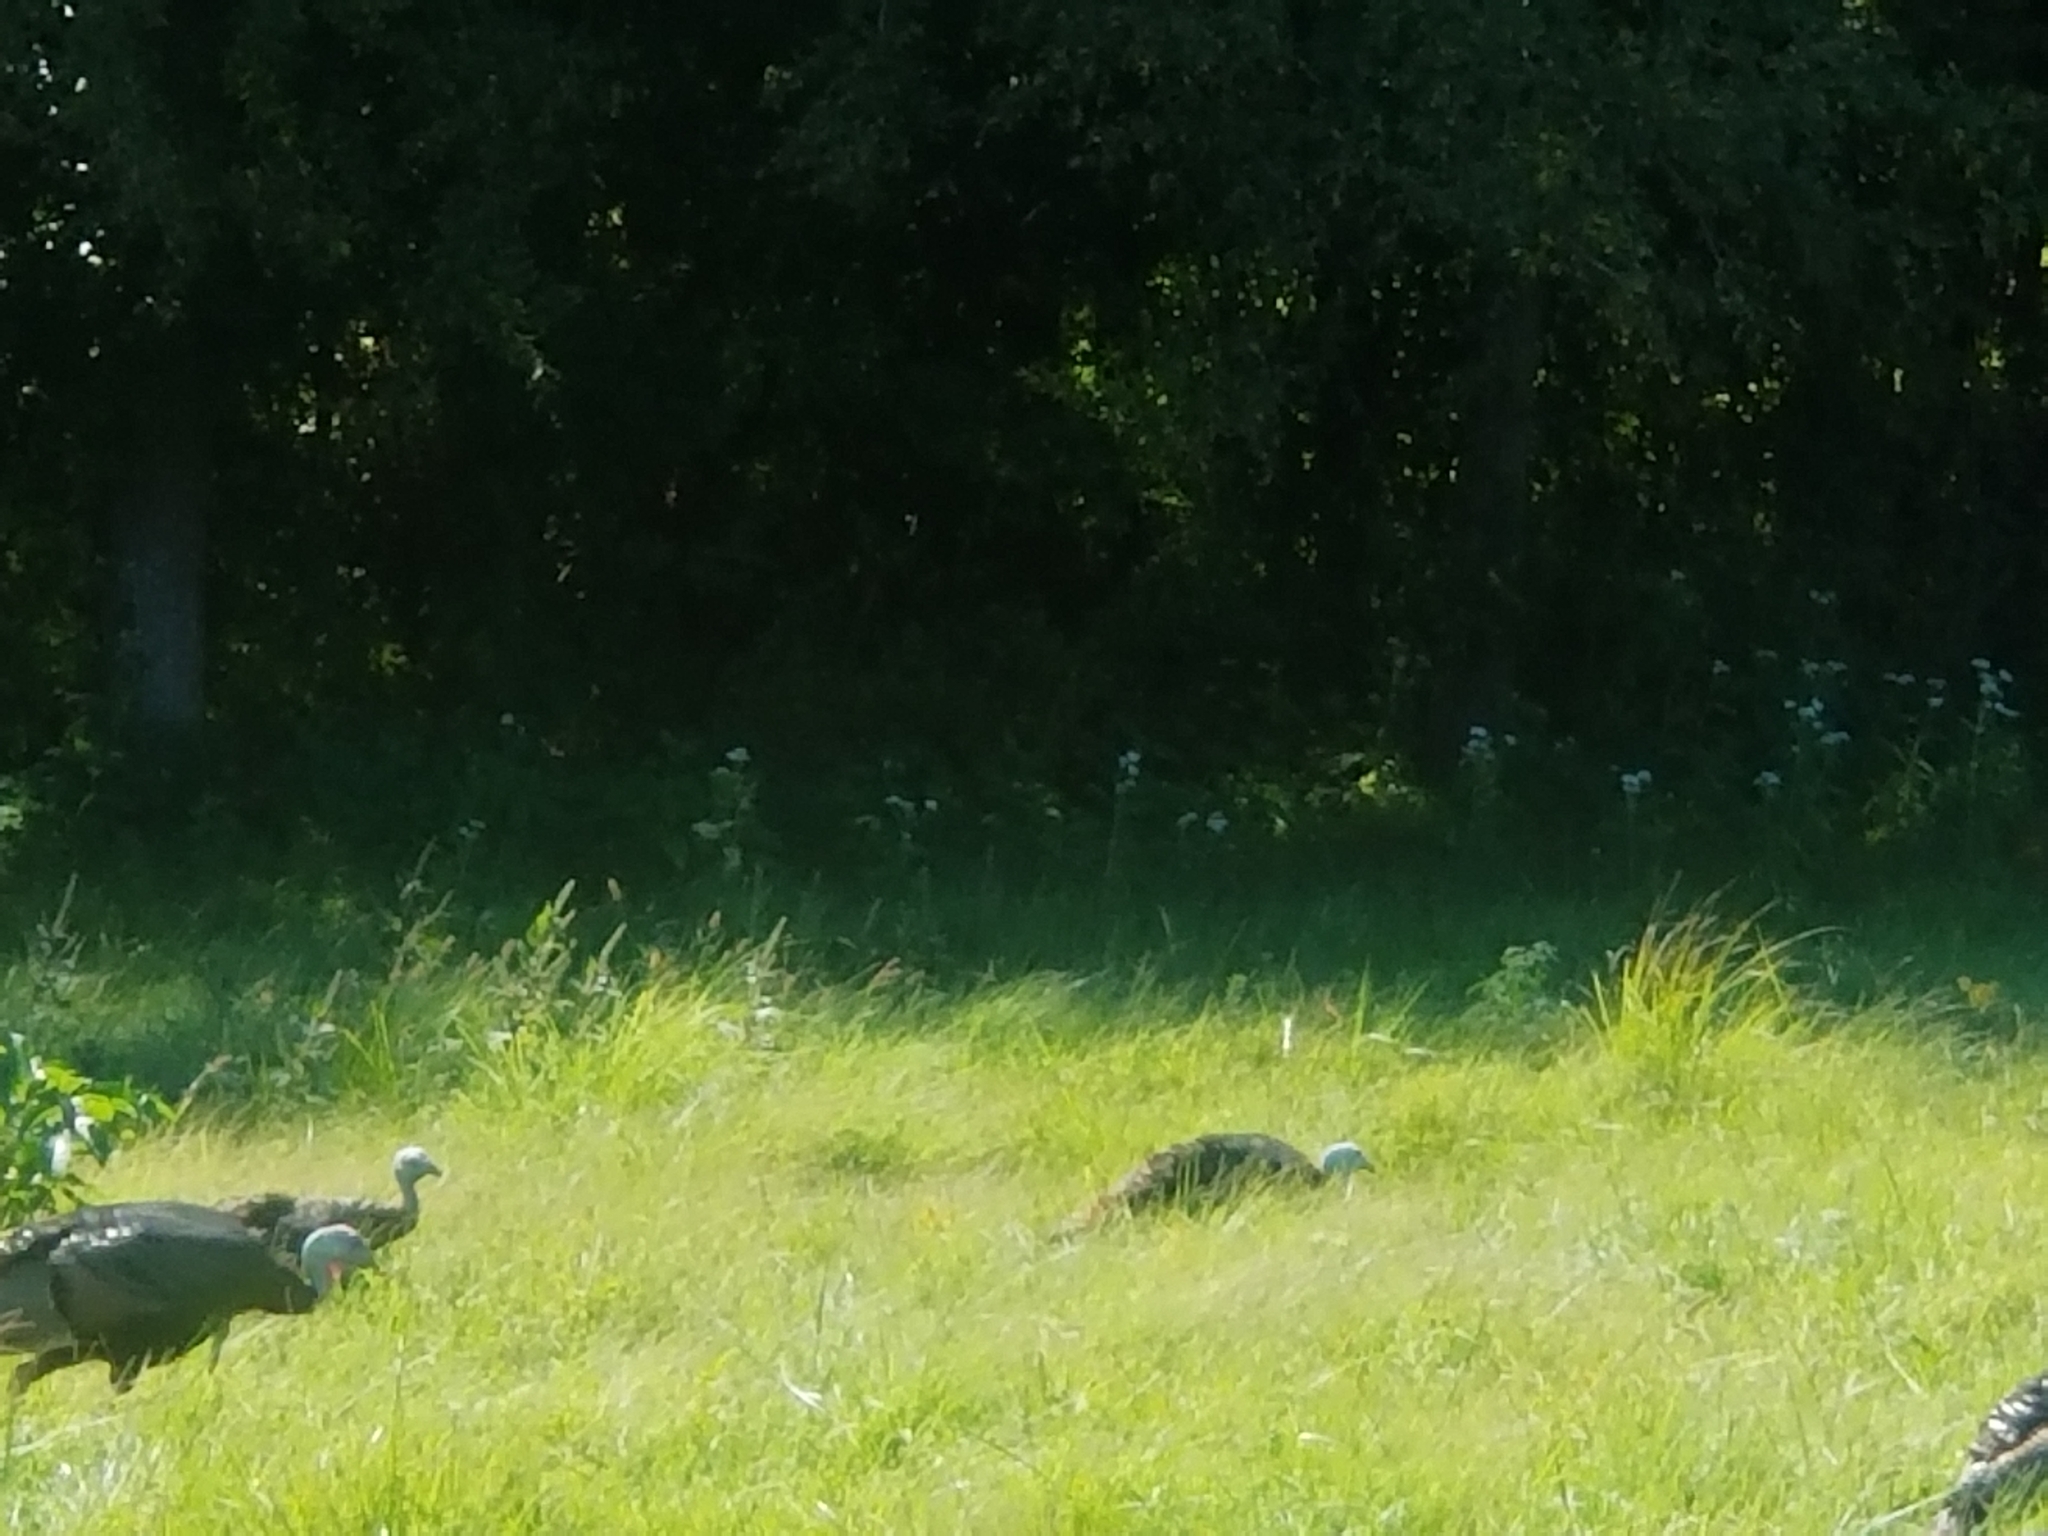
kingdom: Animalia
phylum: Chordata
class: Aves
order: Galliformes
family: Phasianidae
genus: Meleagris
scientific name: Meleagris gallopavo
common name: Wild turkey
